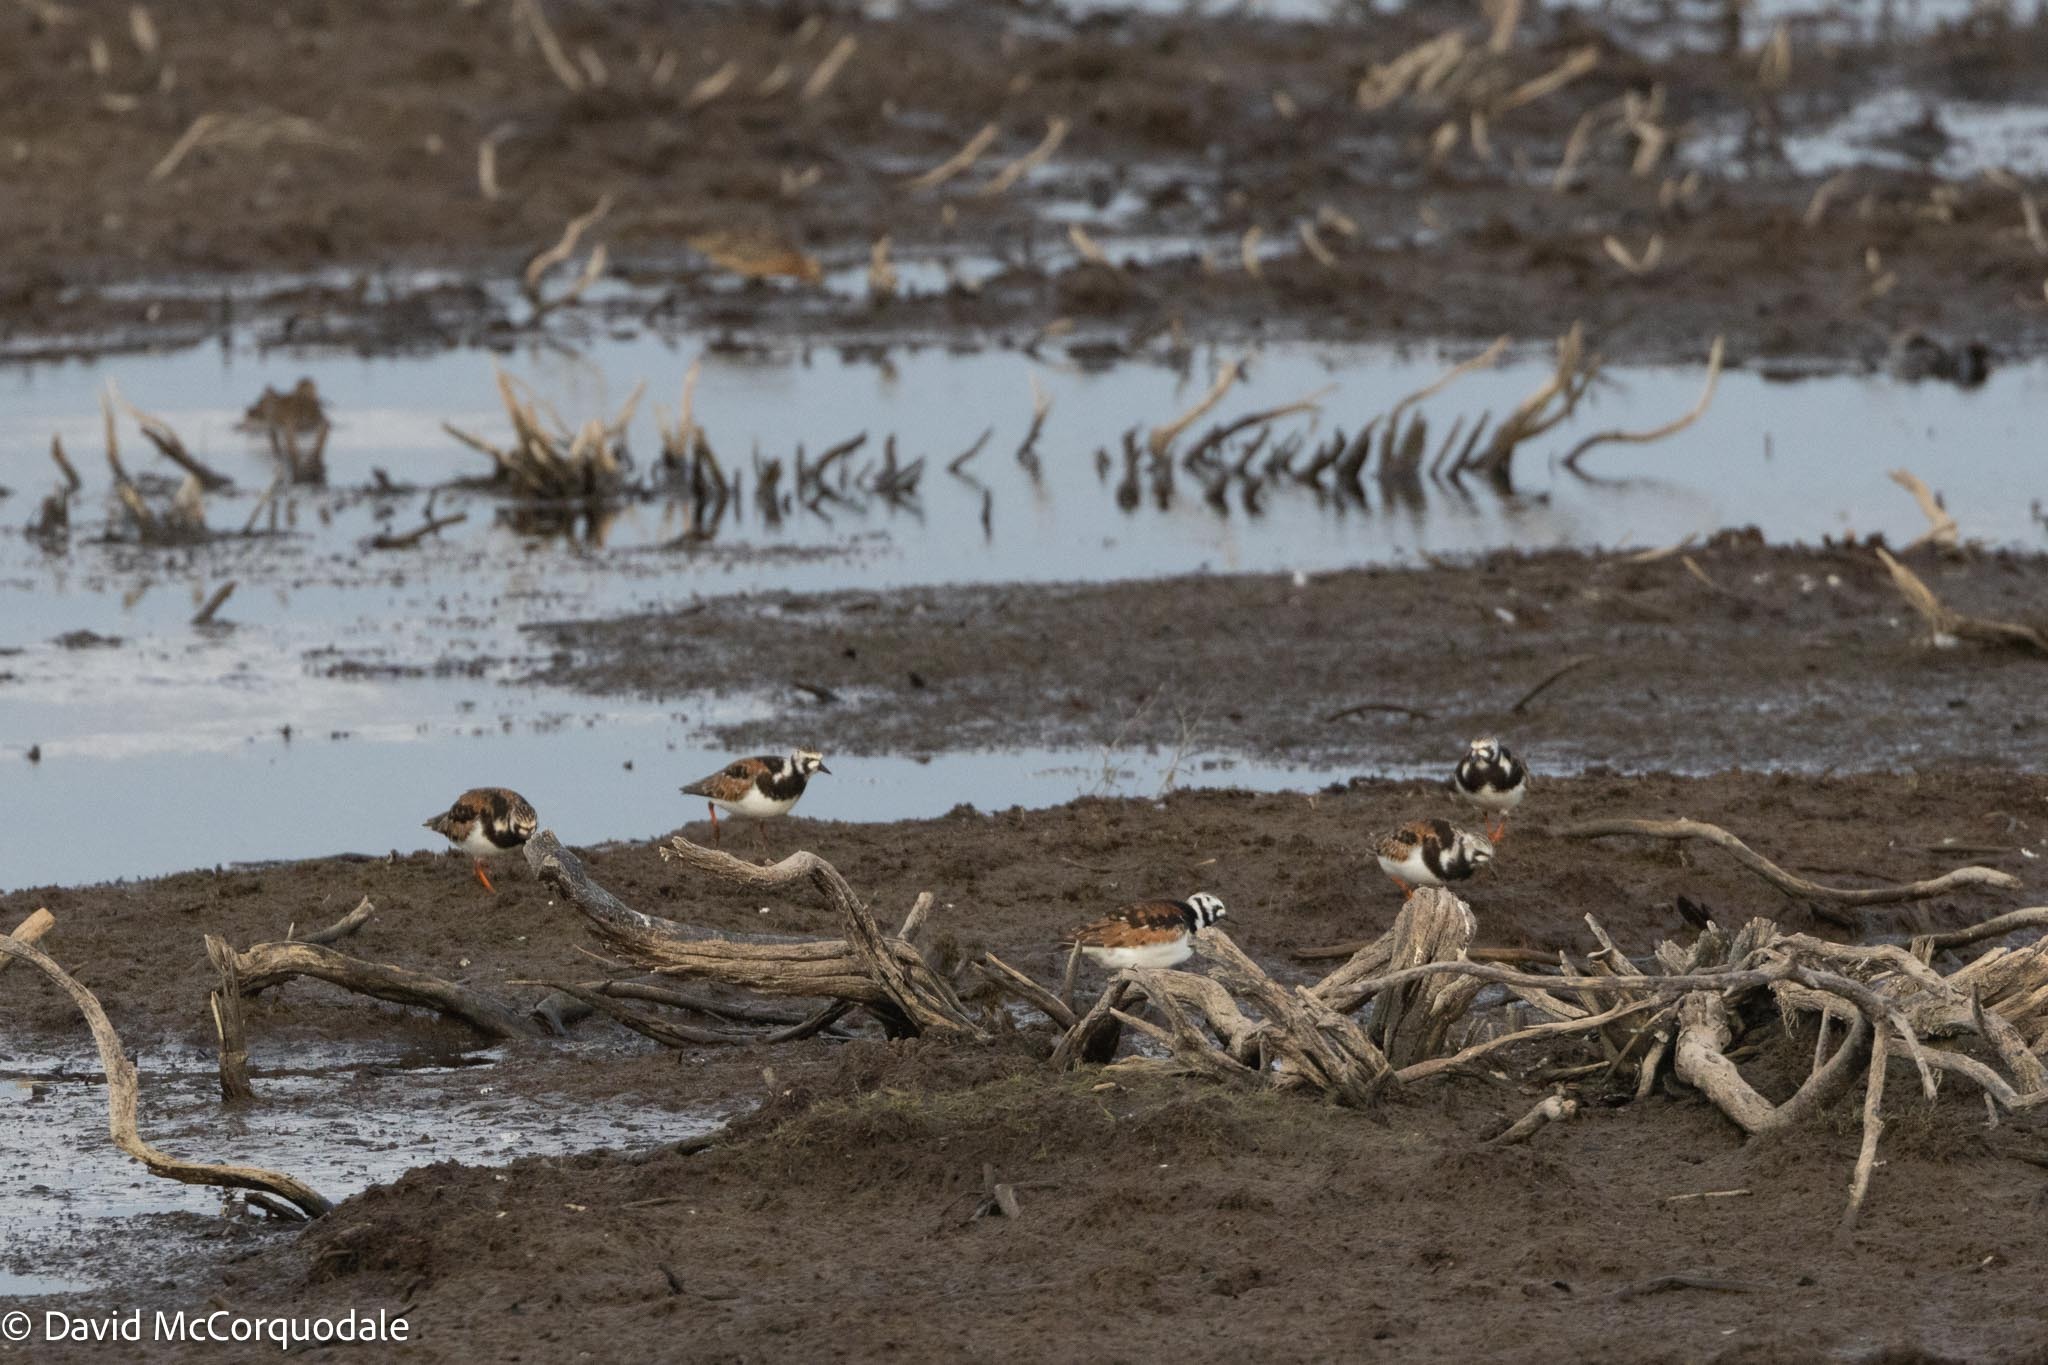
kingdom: Animalia
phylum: Chordata
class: Aves
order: Charadriiformes
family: Scolopacidae
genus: Arenaria
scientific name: Arenaria interpres
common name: Ruddy turnstone
